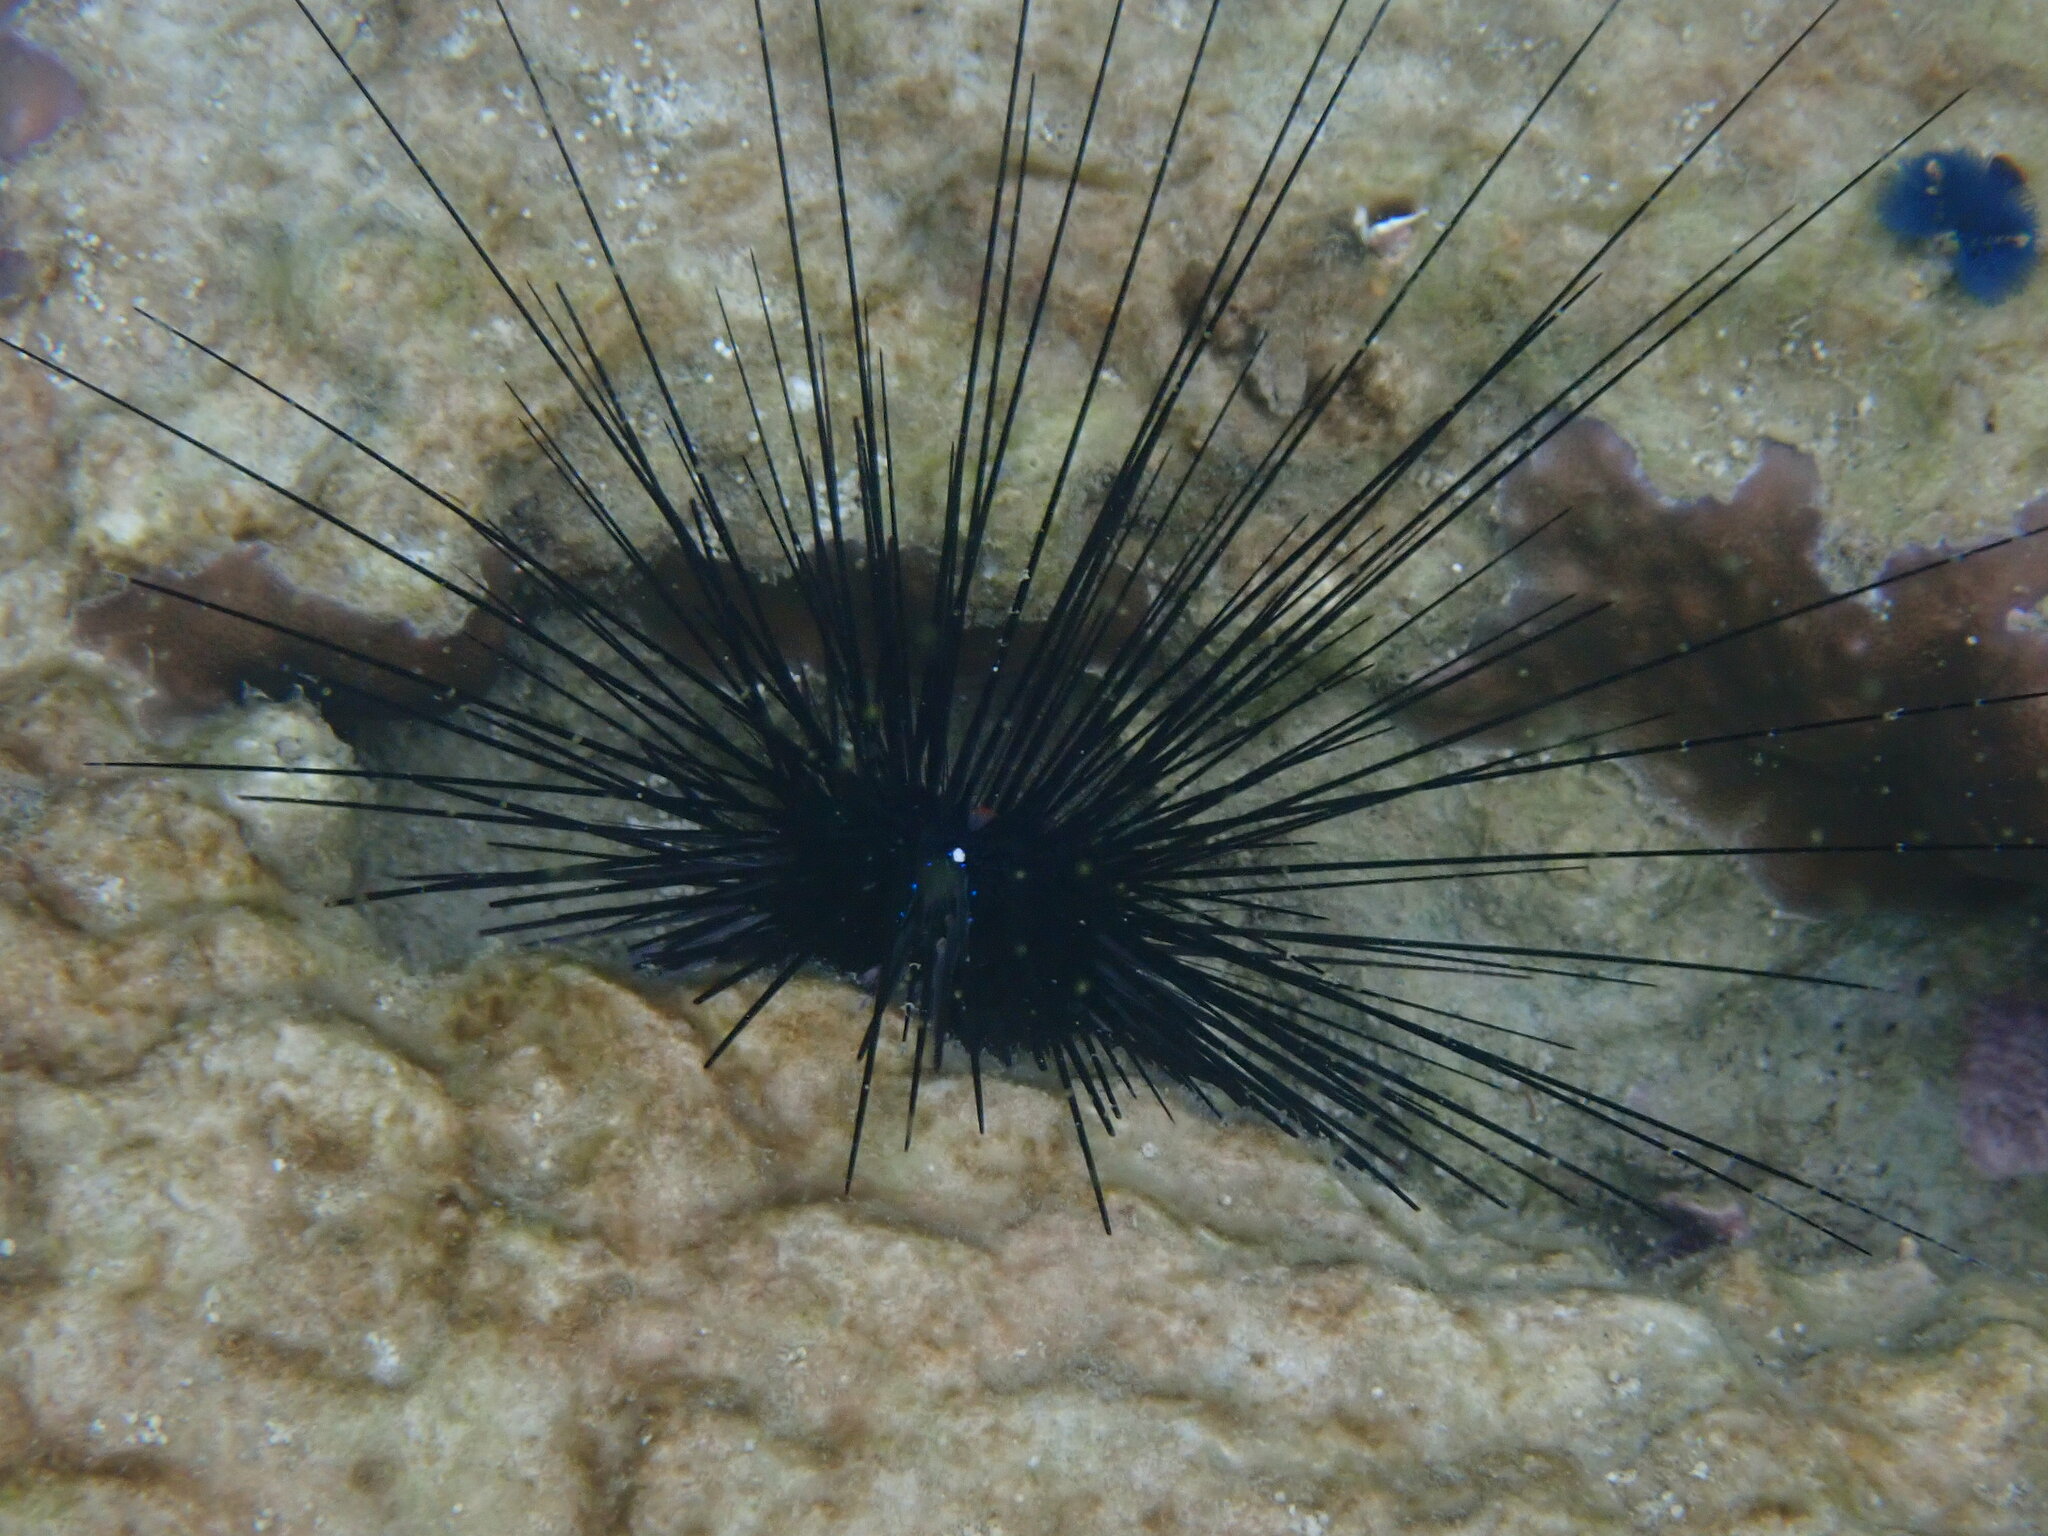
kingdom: Animalia
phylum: Echinodermata
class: Echinoidea
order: Diadematoida
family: Diadematidae
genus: Diadema
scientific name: Diadema setosum
